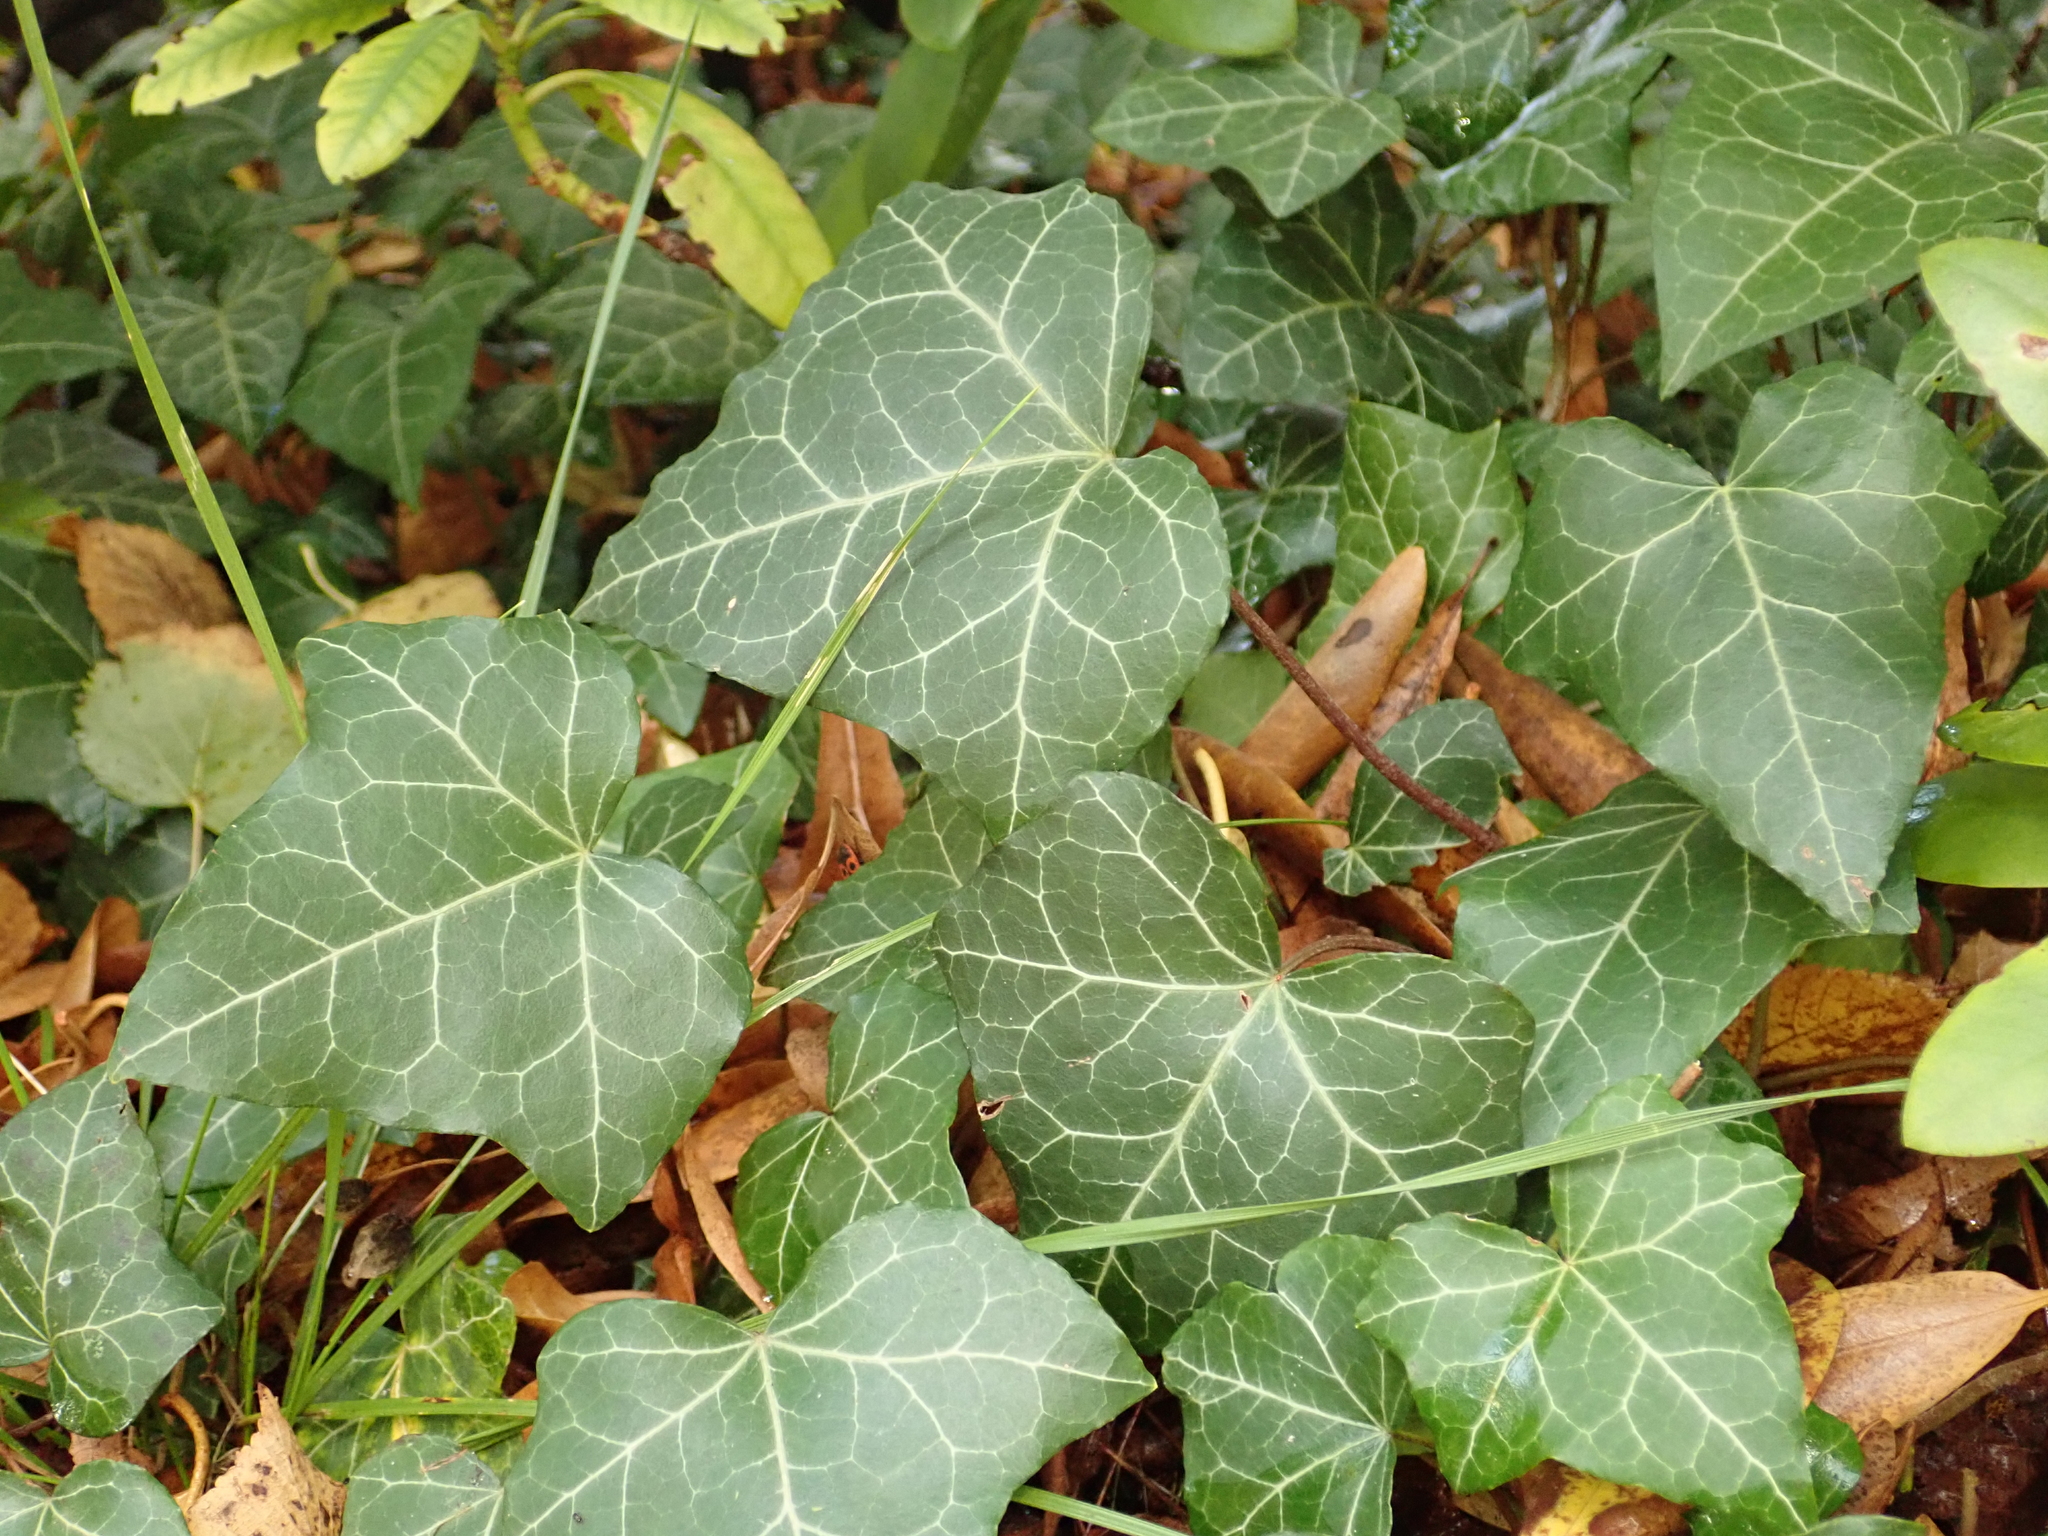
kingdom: Plantae
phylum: Tracheophyta
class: Magnoliopsida
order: Apiales
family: Araliaceae
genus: Hedera
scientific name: Hedera helix
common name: Ivy
